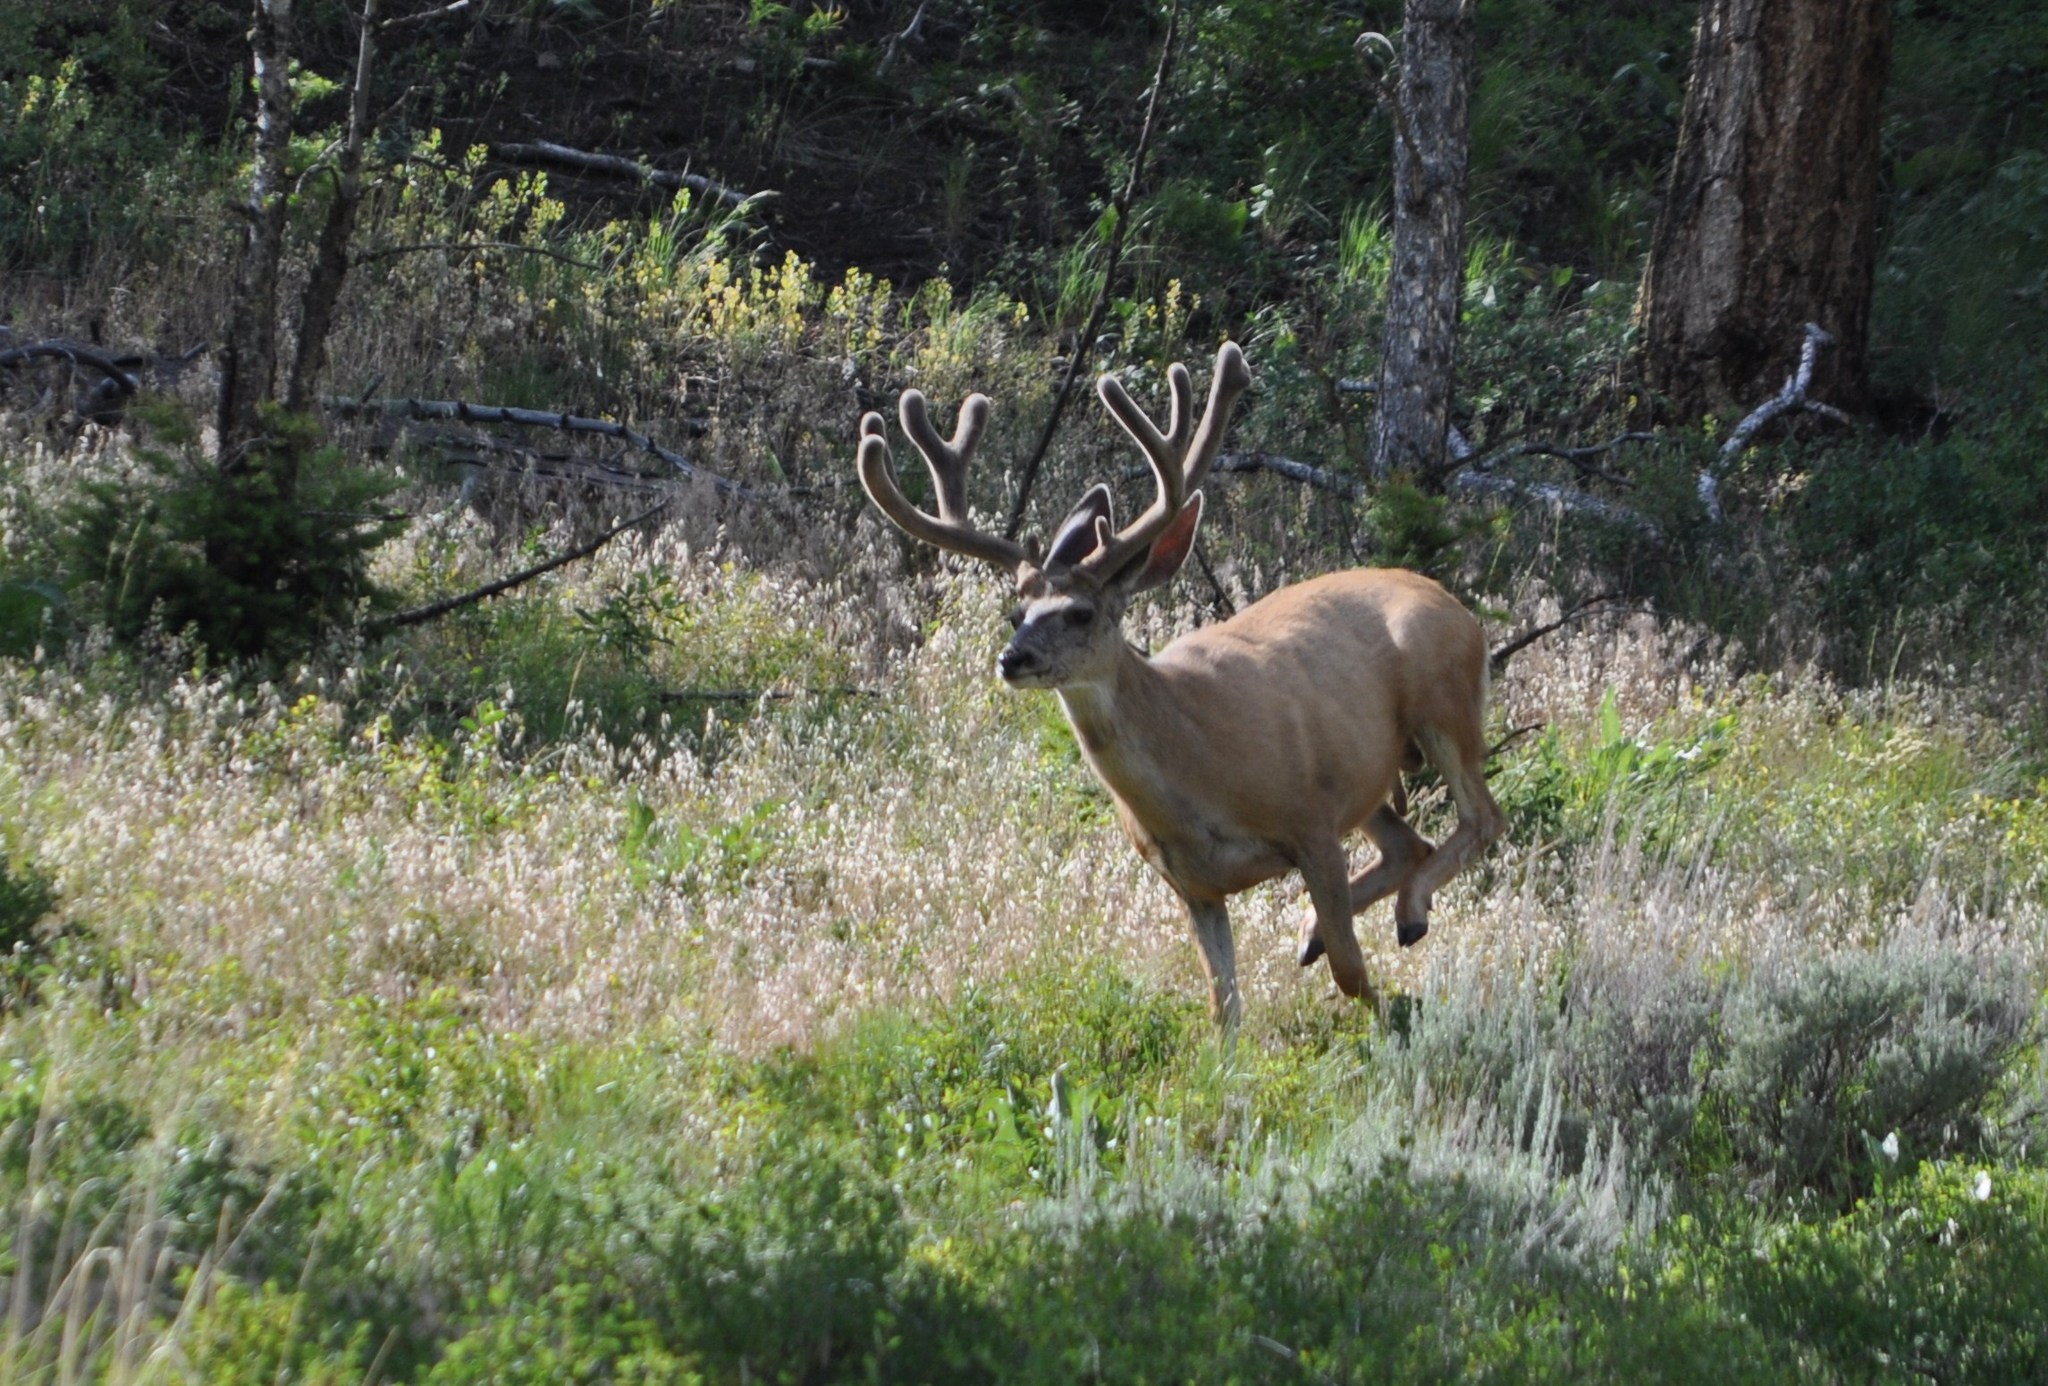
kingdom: Animalia
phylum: Chordata
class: Mammalia
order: Artiodactyla
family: Cervidae
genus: Odocoileus
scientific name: Odocoileus hemionus
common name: Mule deer
